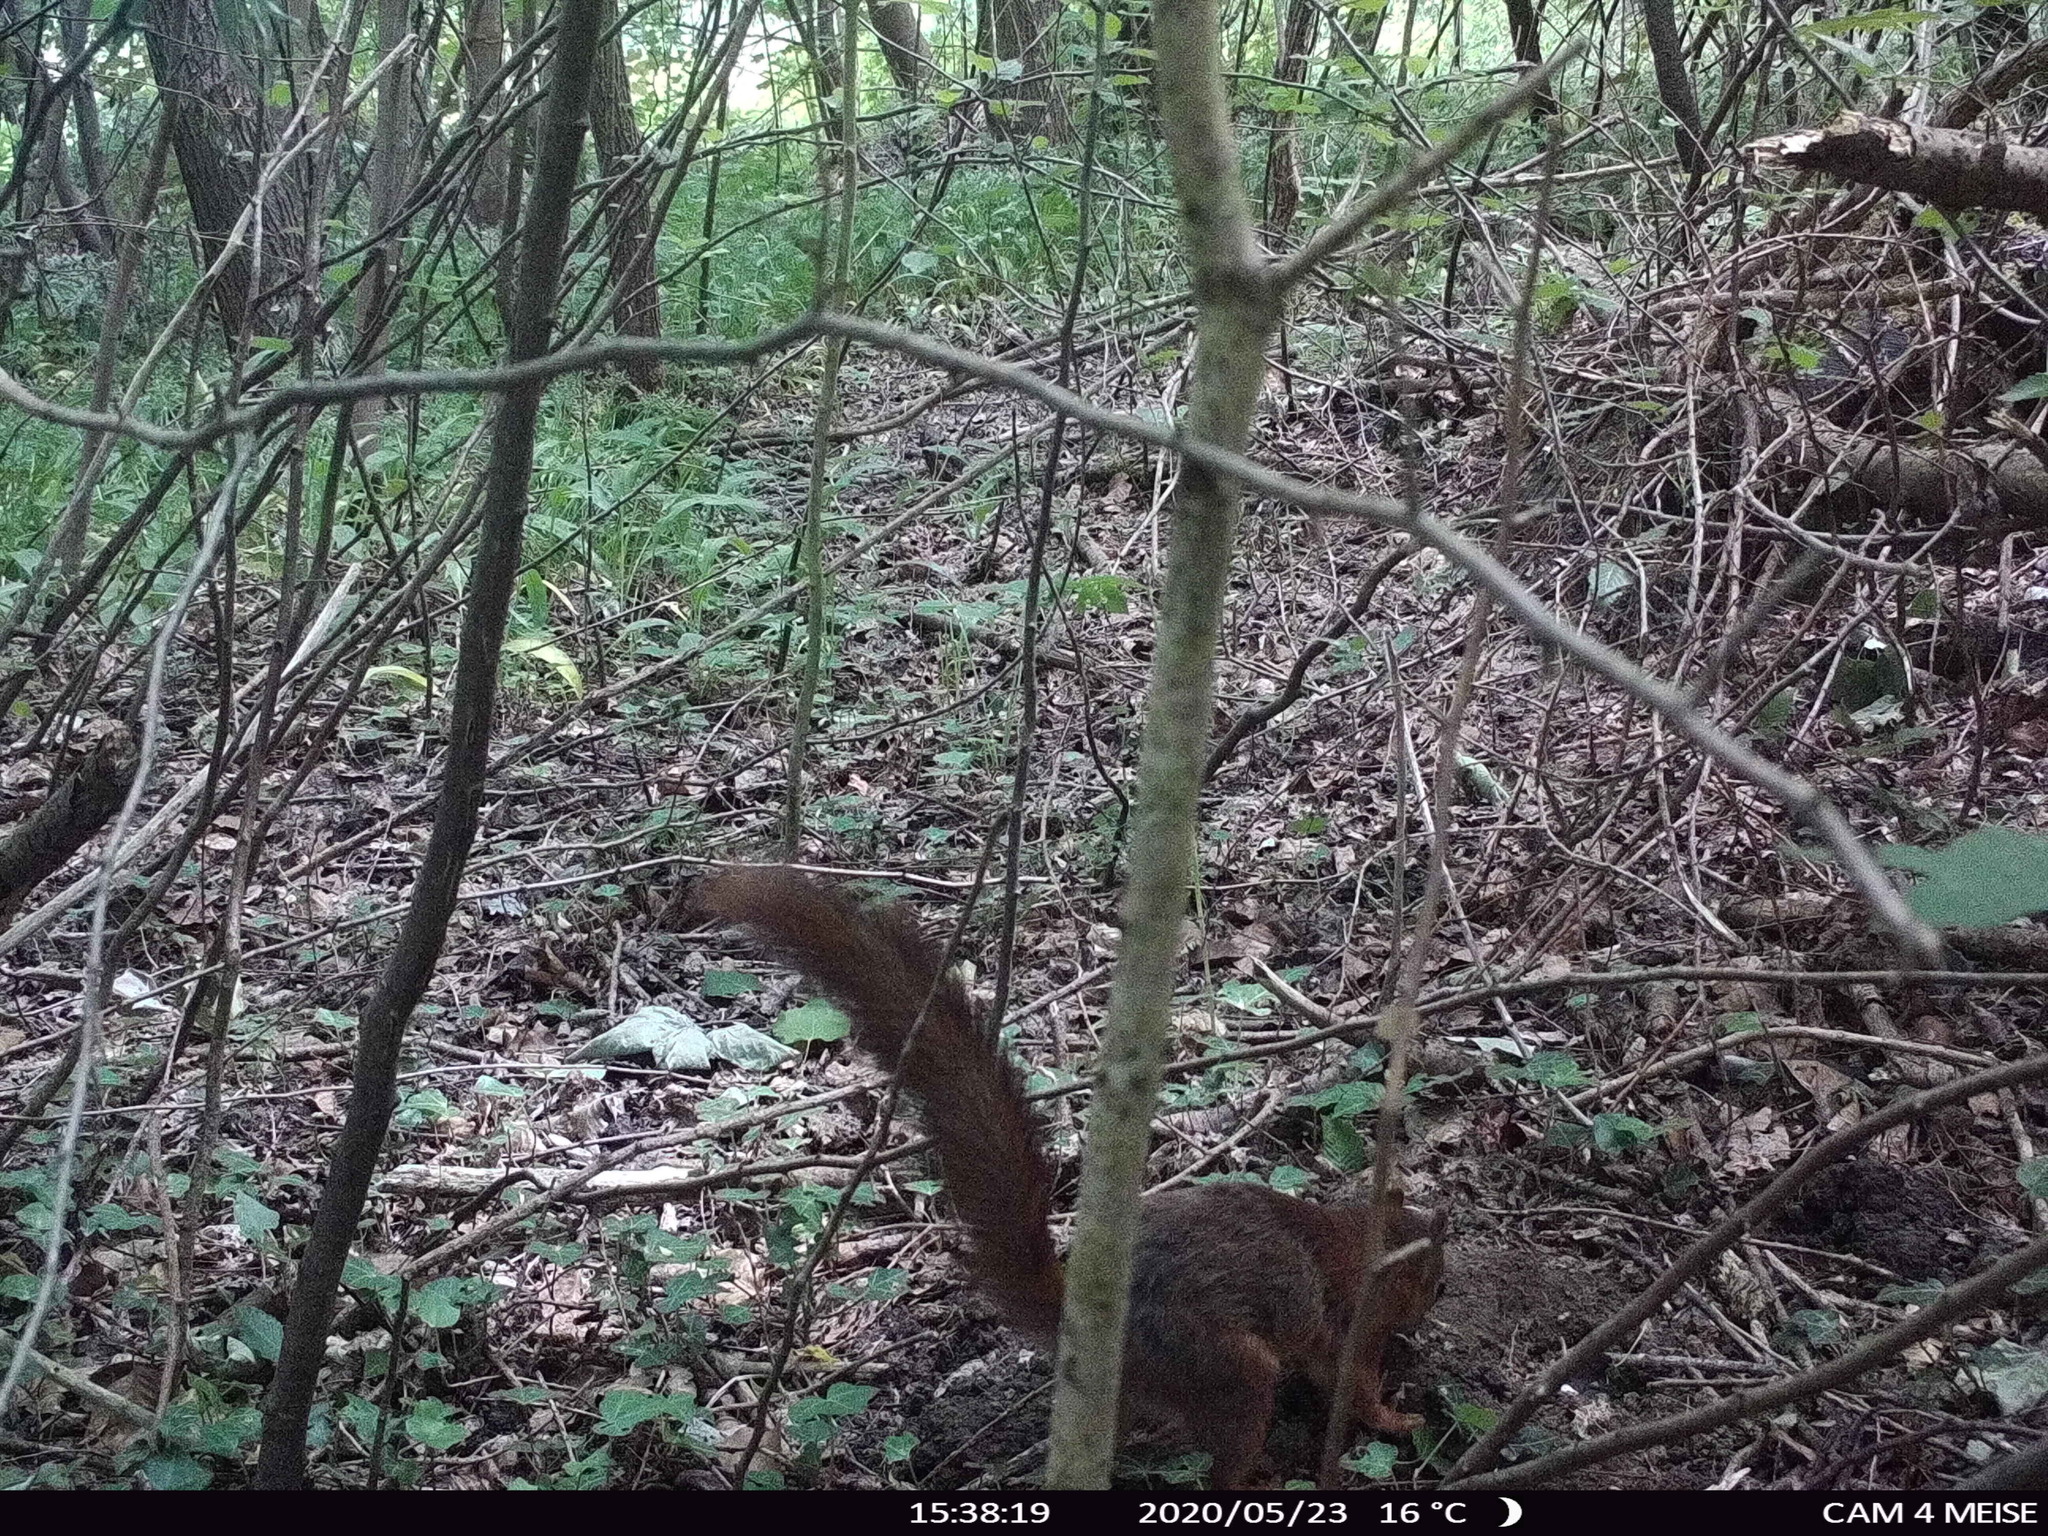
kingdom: Animalia
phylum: Chordata
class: Mammalia
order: Rodentia
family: Sciuridae
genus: Sciurus
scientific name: Sciurus vulgaris
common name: Eurasian red squirrel
